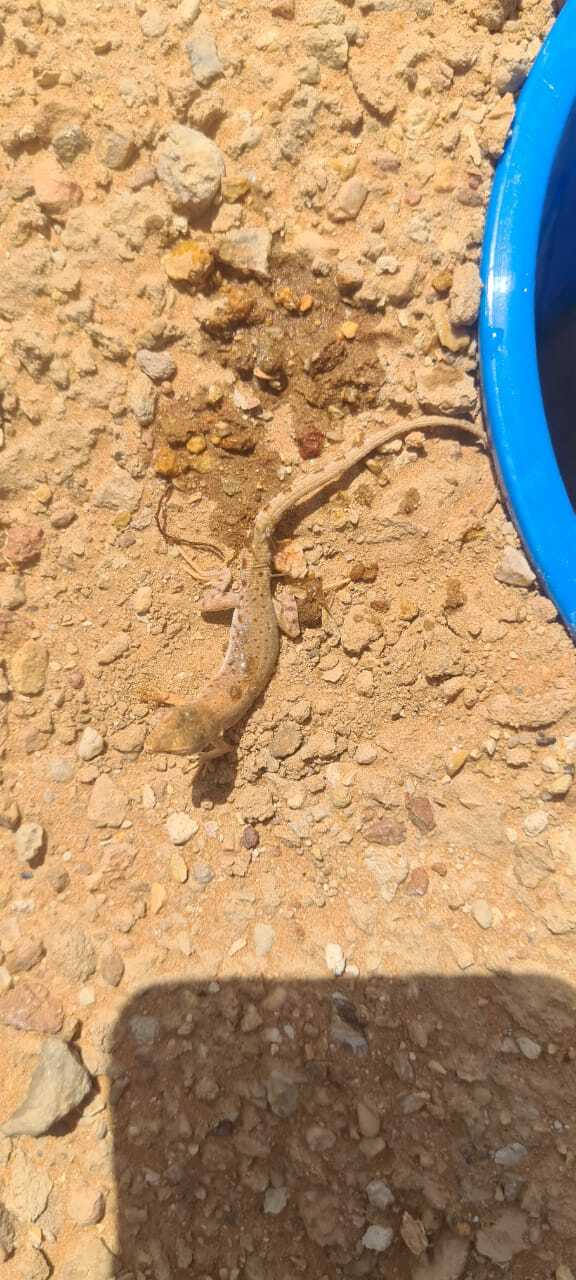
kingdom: Animalia
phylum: Chordata
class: Squamata
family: Lacertidae
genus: Mesalina
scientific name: Mesalina brevirostris
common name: Blanford's short-nosed desert lizard
